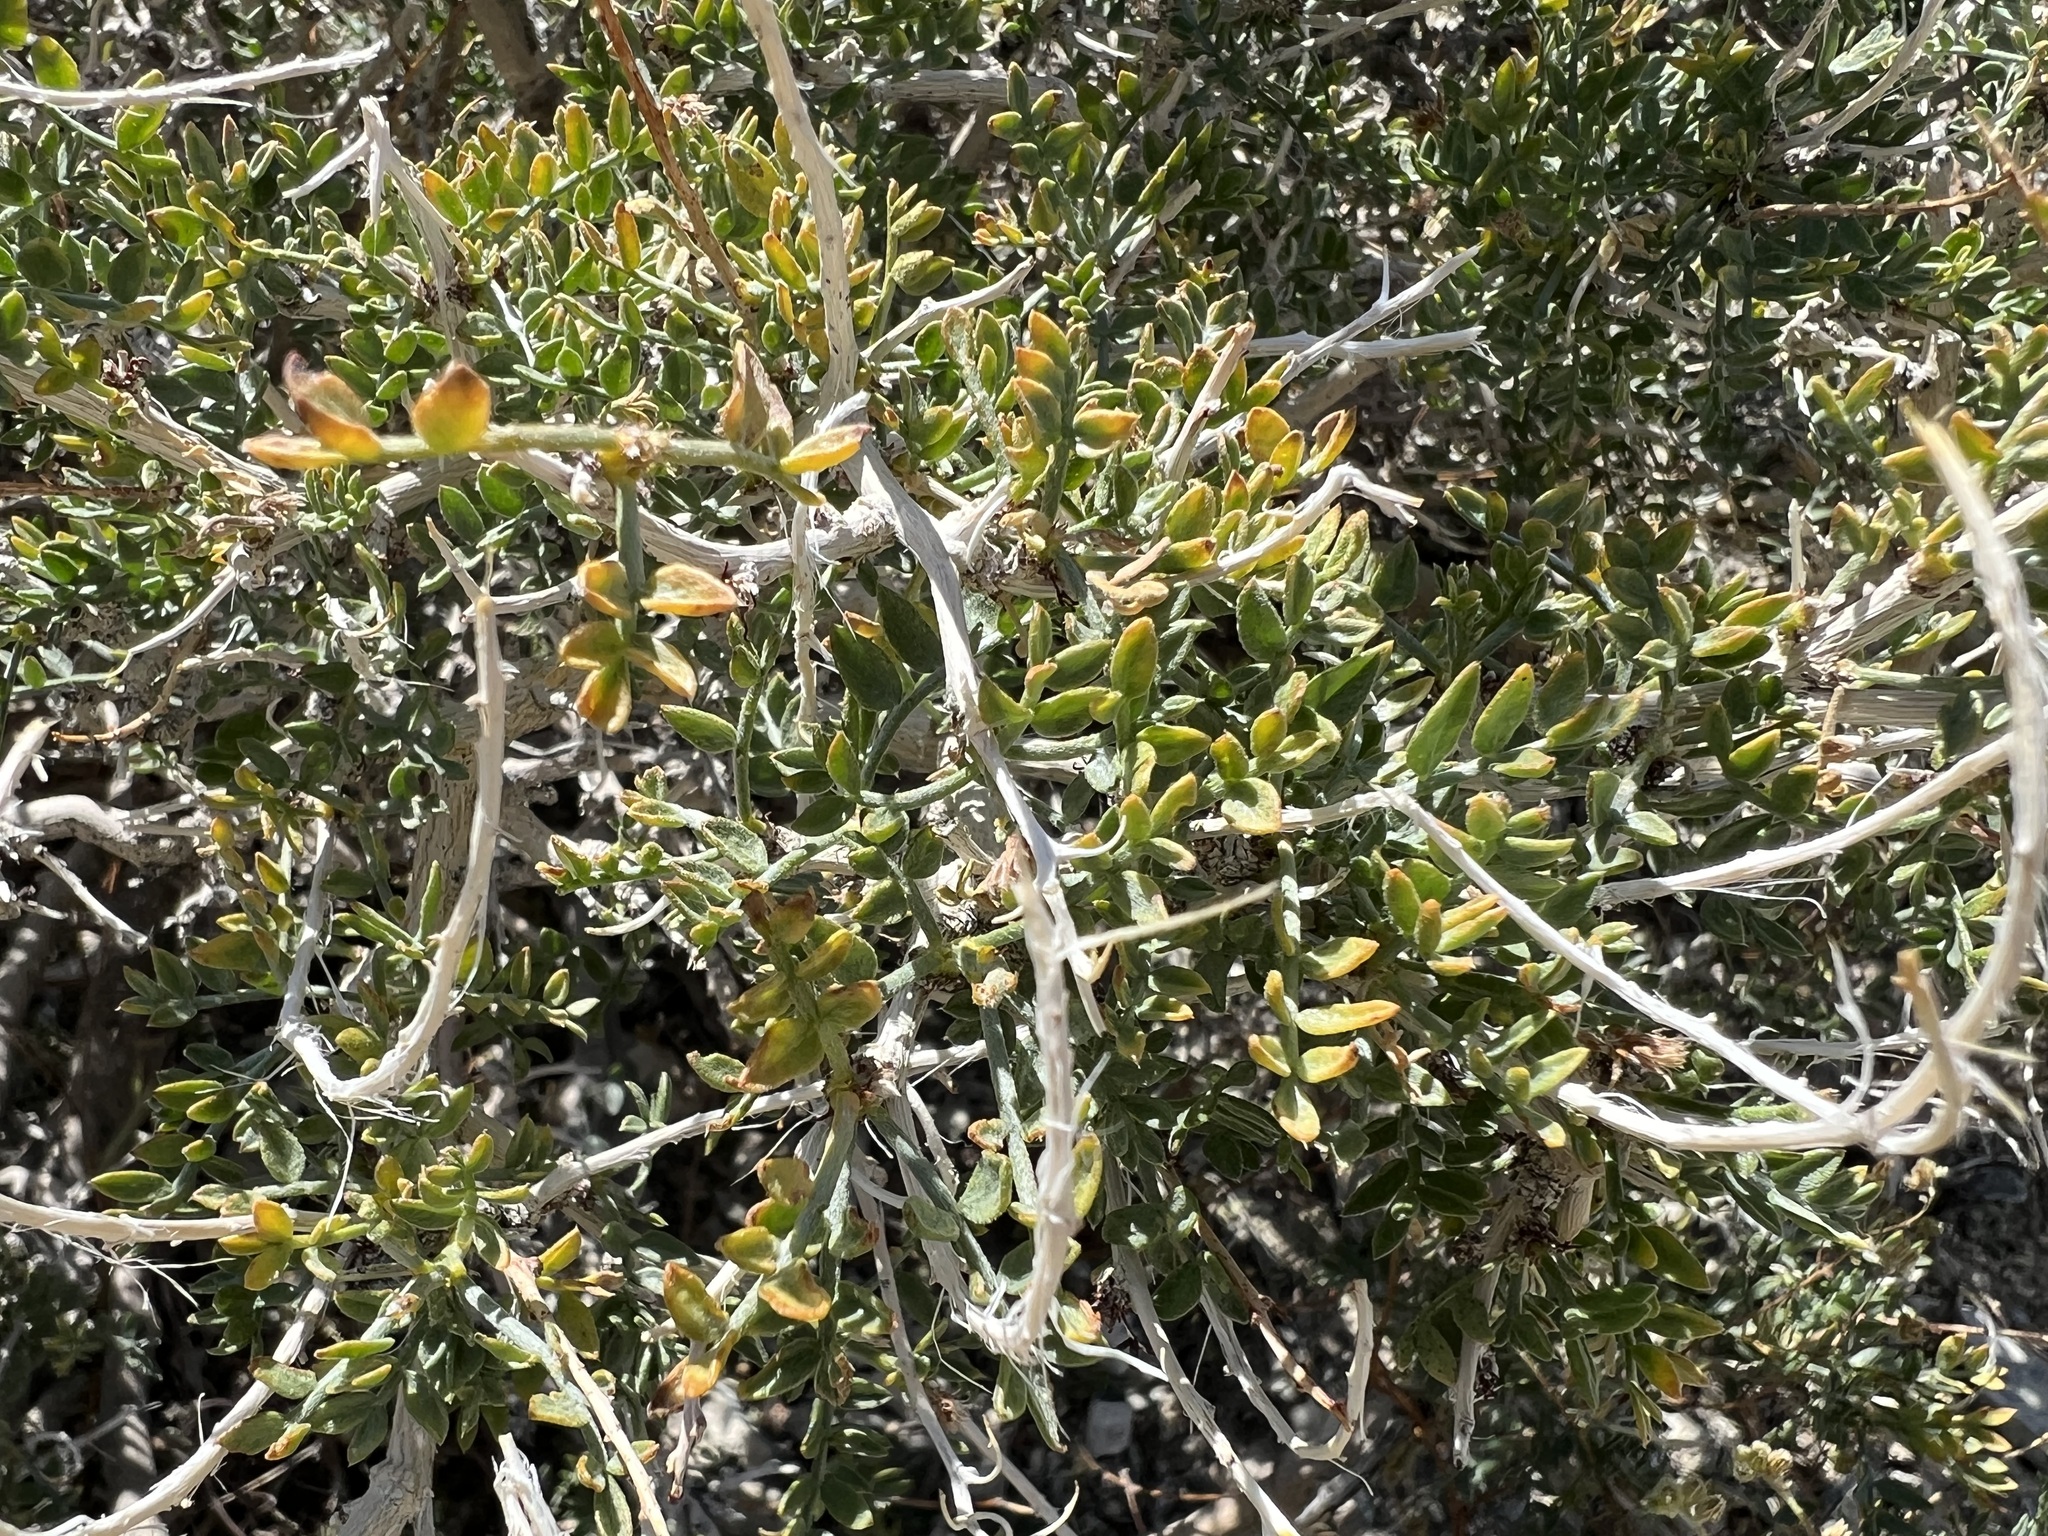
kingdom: Plantae
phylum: Tracheophyta
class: Magnoliopsida
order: Fabales
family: Fabaceae
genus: Psorothamnus
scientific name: Psorothamnus arborescens
